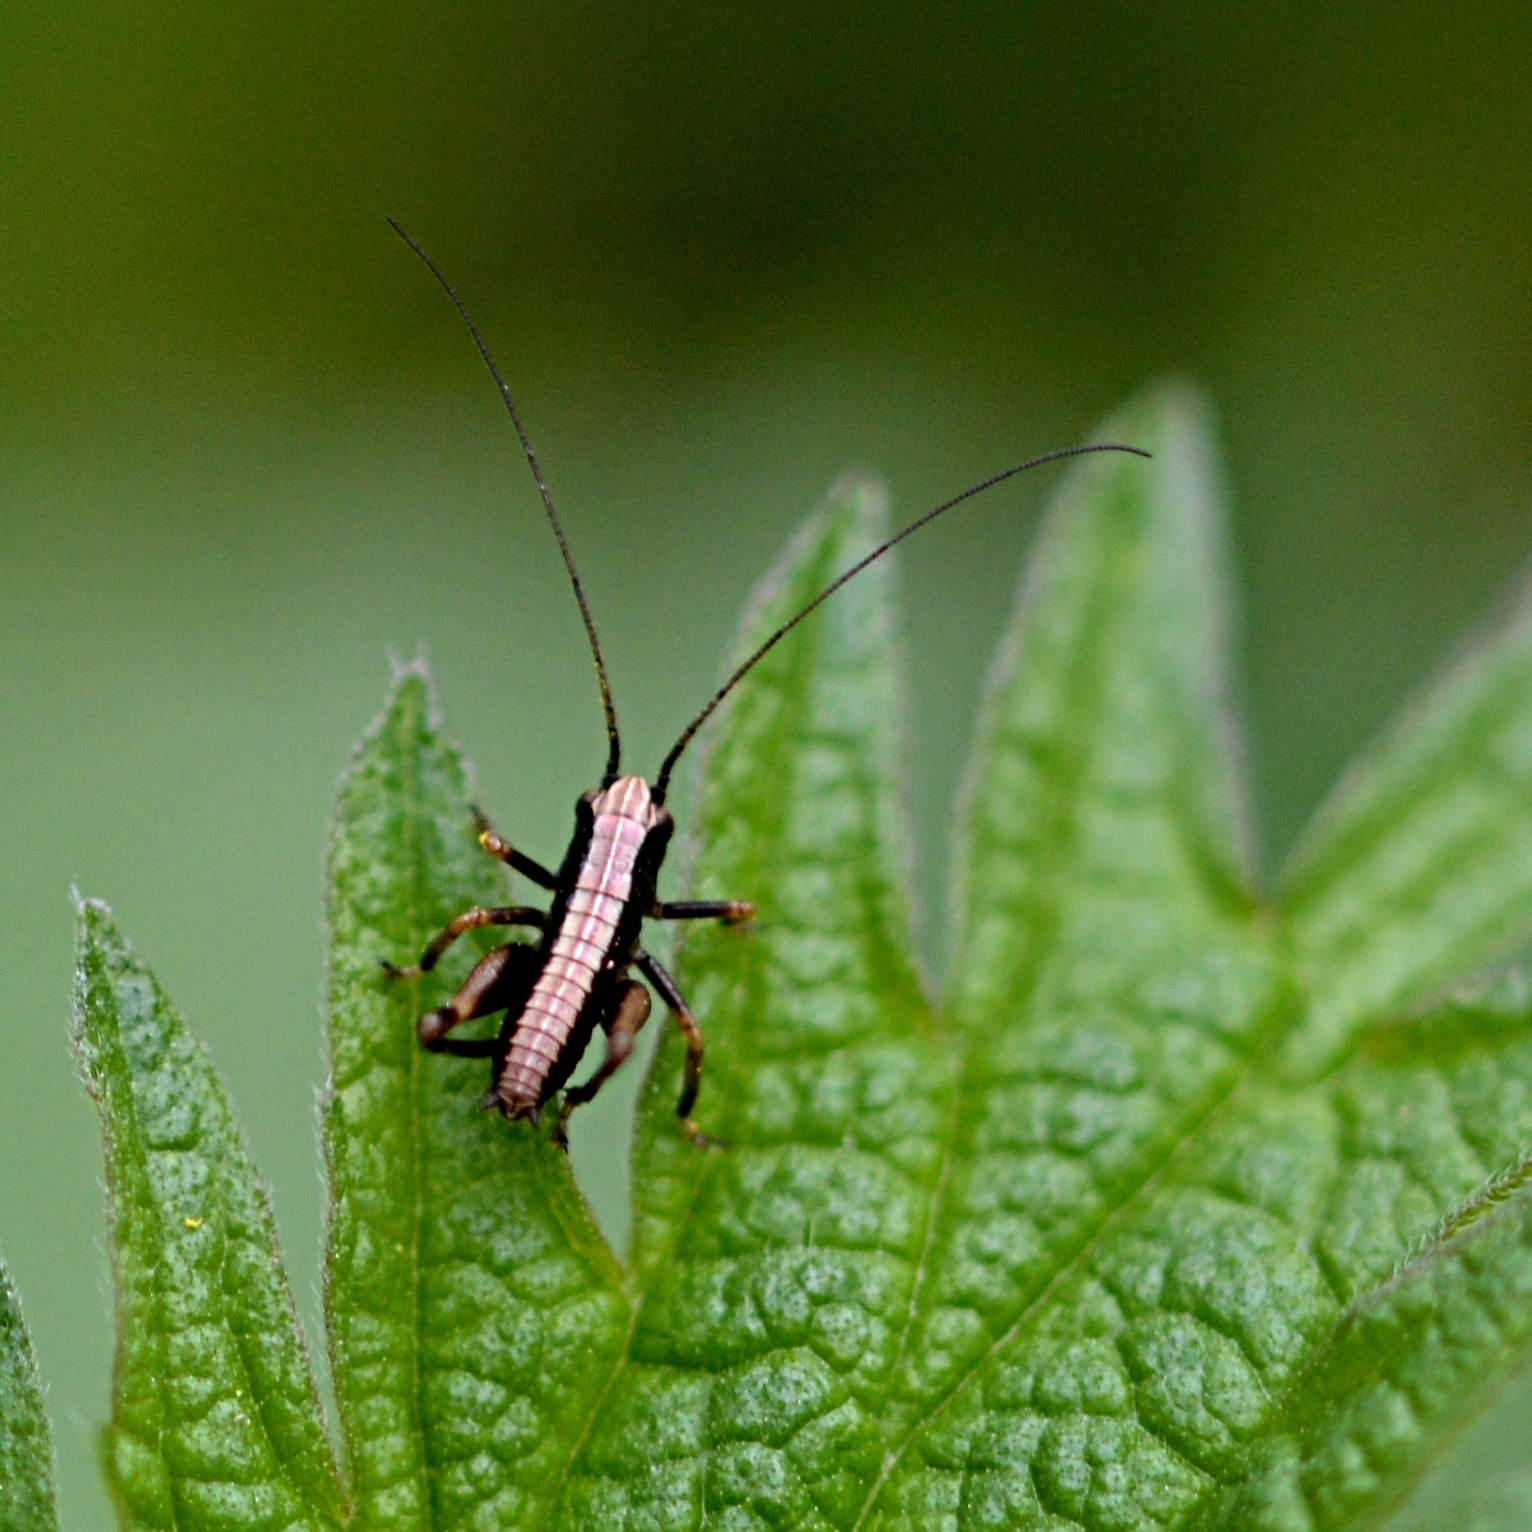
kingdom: Animalia
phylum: Arthropoda
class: Insecta
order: Orthoptera
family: Tettigoniidae
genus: Pholidoptera
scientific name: Pholidoptera griseoaptera
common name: Dark bush-cricket
